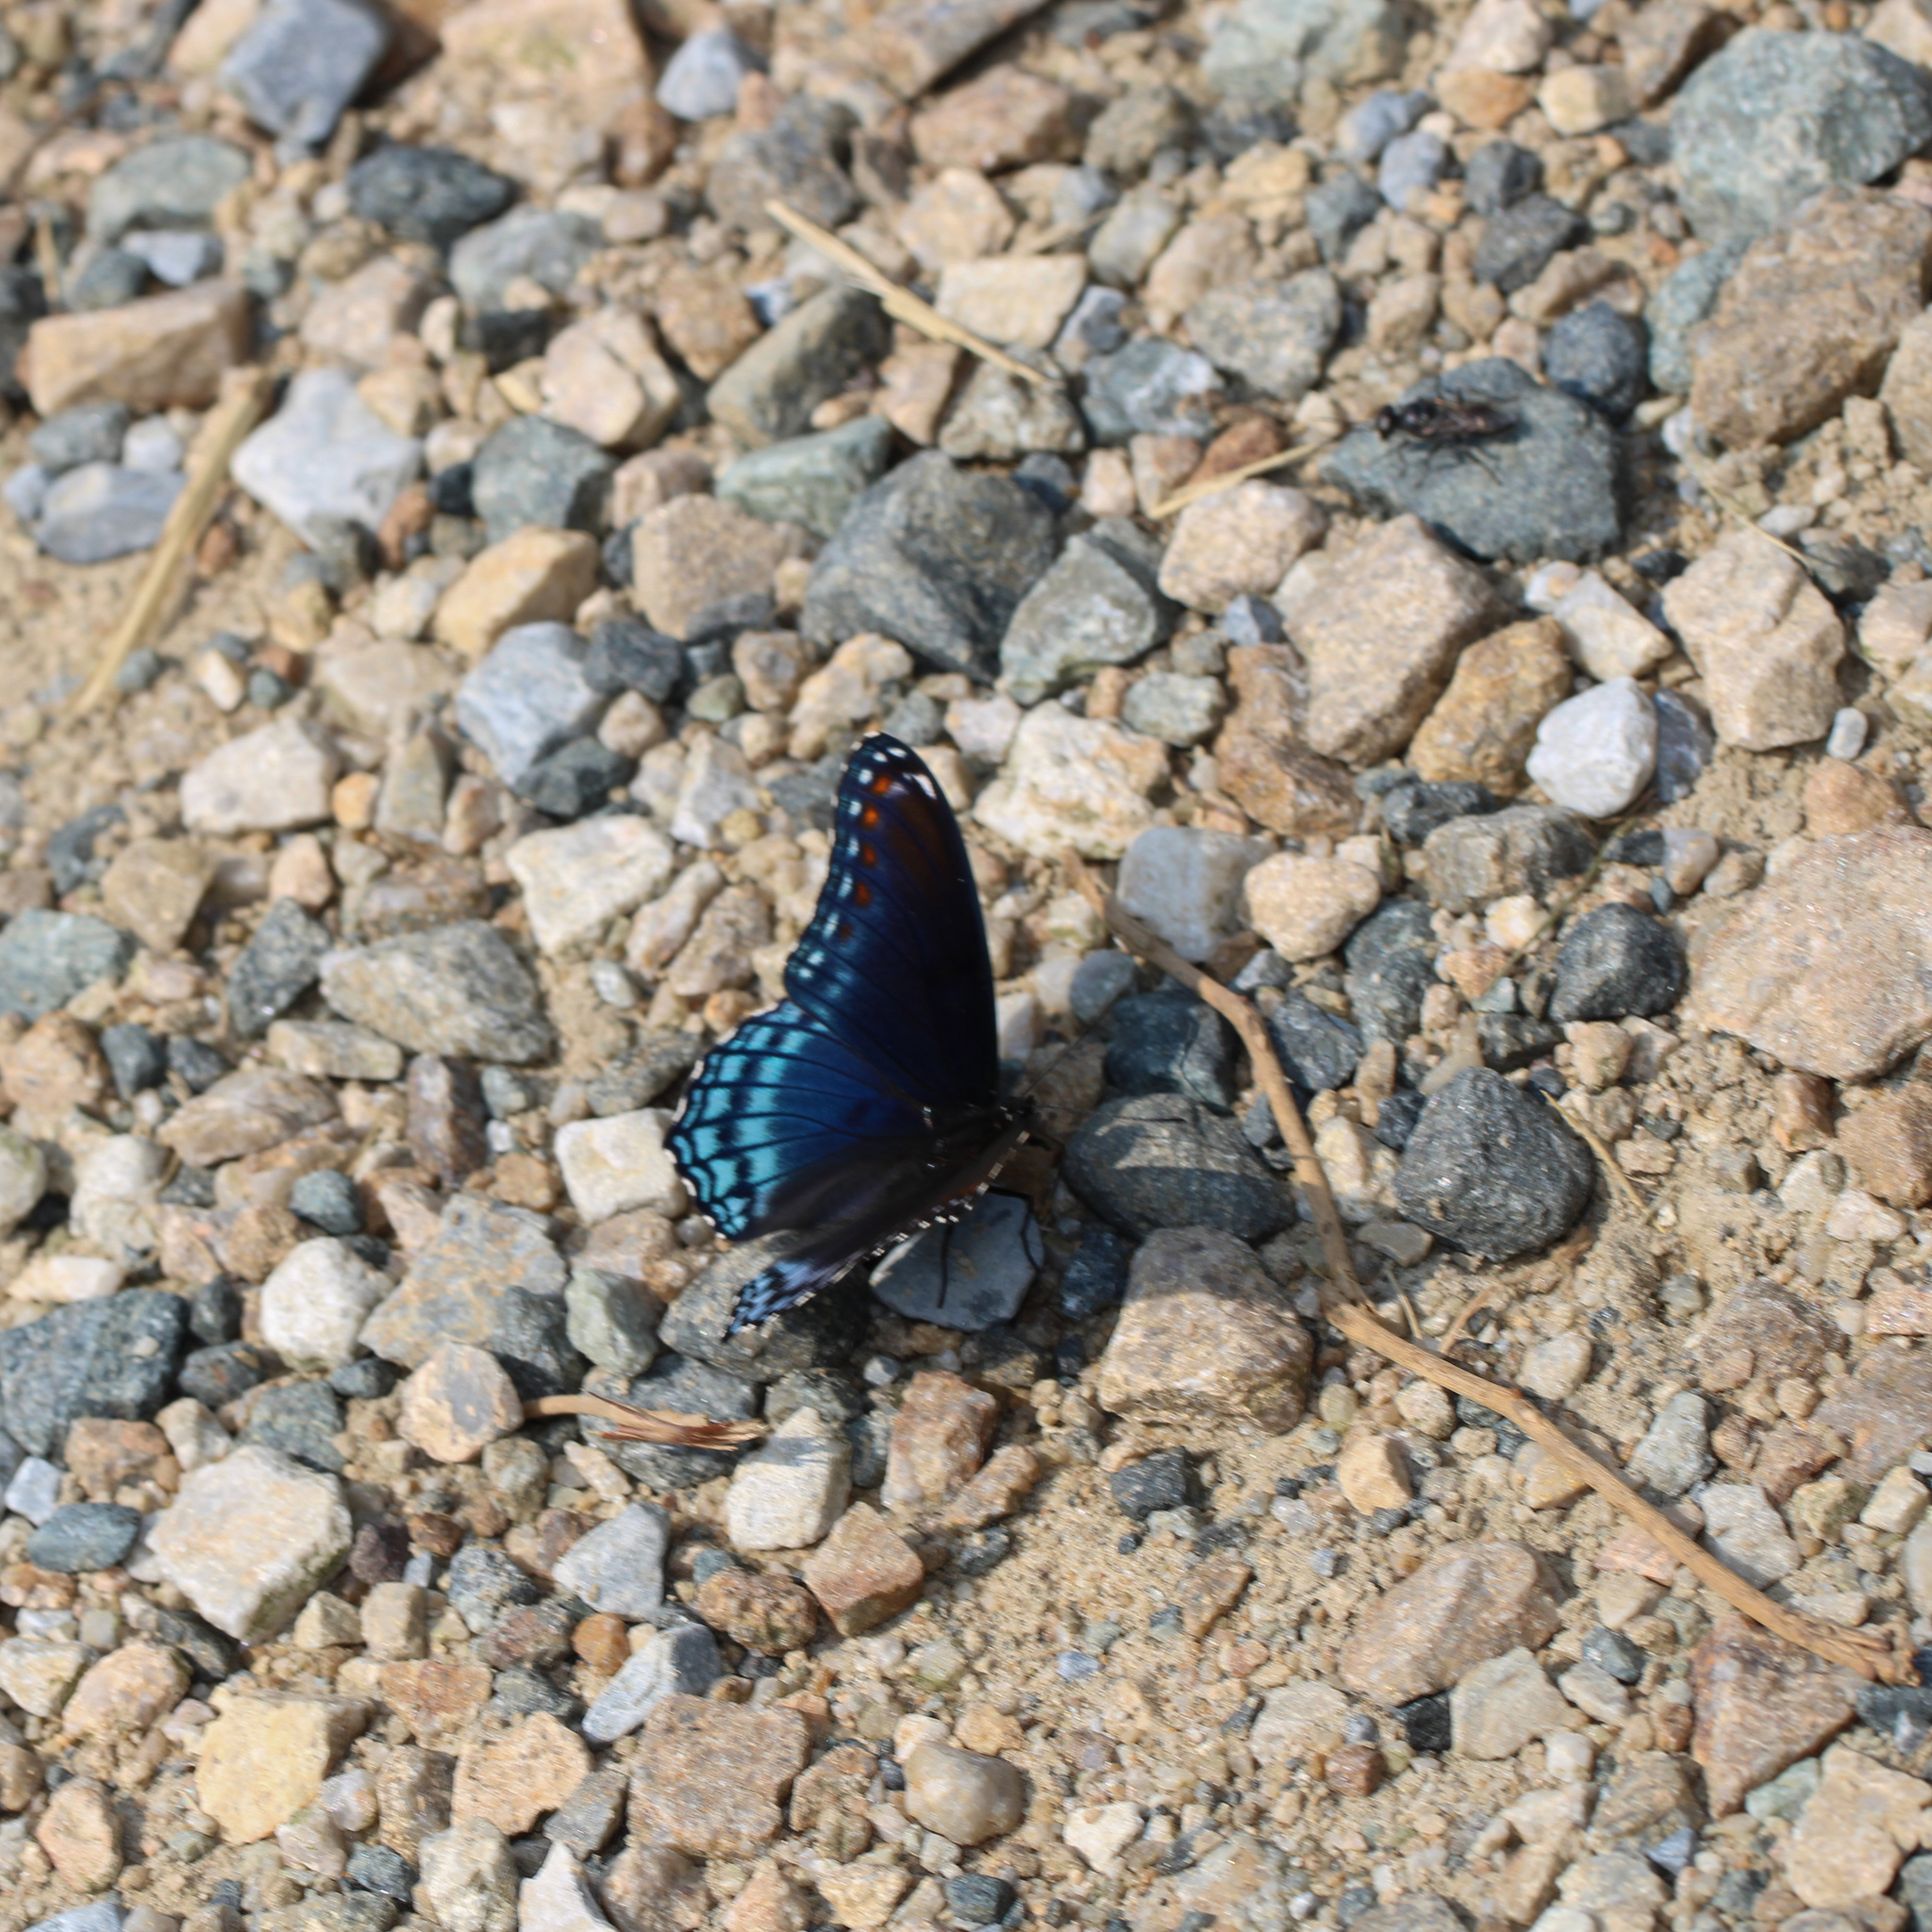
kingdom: Animalia
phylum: Arthropoda
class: Insecta
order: Lepidoptera
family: Nymphalidae
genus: Limenitis
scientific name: Limenitis arthemis
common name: Red-spotted admiral
